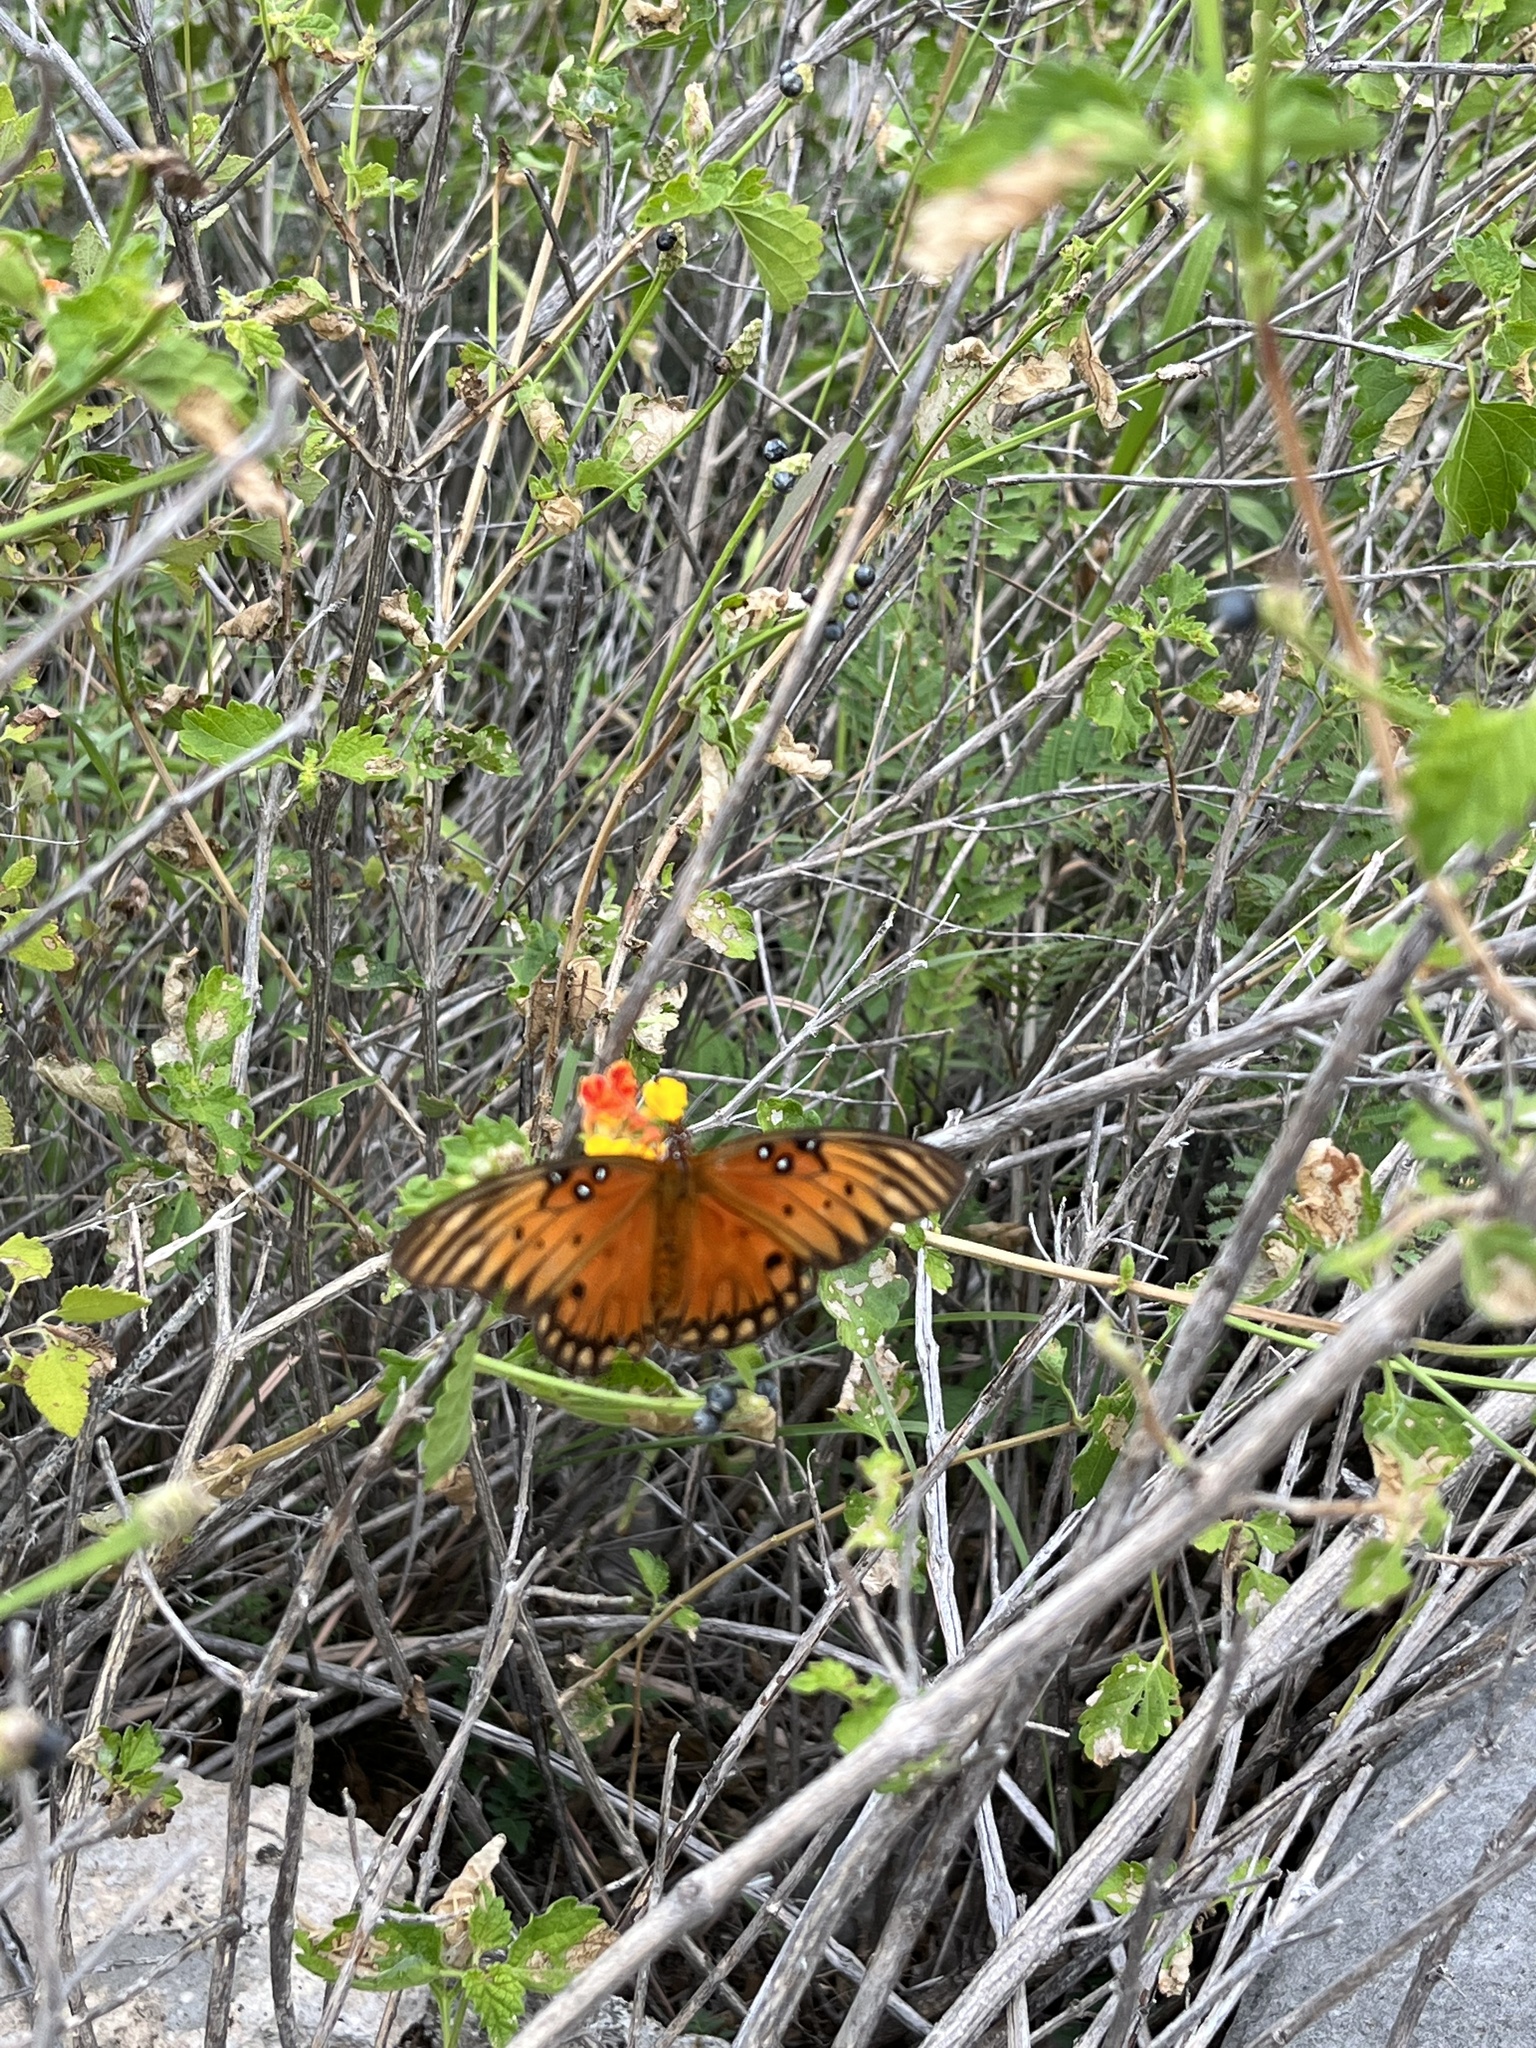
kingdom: Animalia
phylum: Arthropoda
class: Insecta
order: Lepidoptera
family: Nymphalidae
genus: Dione
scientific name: Dione vanillae
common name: Gulf fritillary
